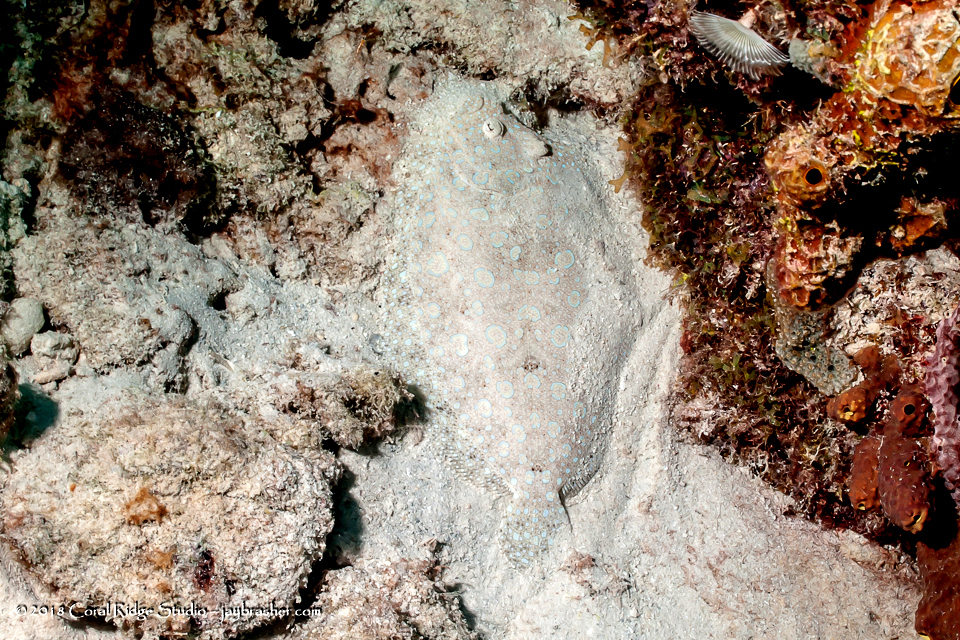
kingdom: Animalia
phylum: Chordata
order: Pleuronectiformes
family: Bothidae
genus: Bothus
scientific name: Bothus lunatus
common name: Peacock flounder
